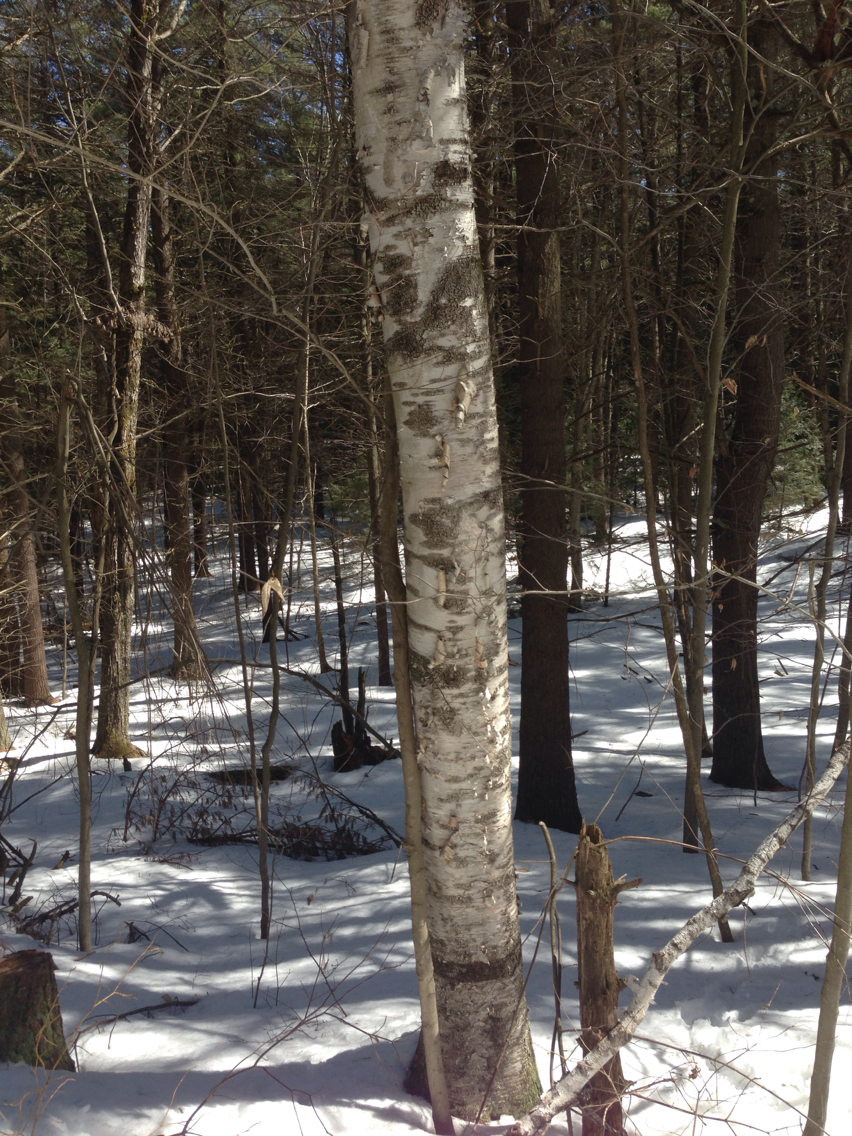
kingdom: Plantae
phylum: Tracheophyta
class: Magnoliopsida
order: Fagales
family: Betulaceae
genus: Betula
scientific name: Betula papyrifera
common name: Paper birch
